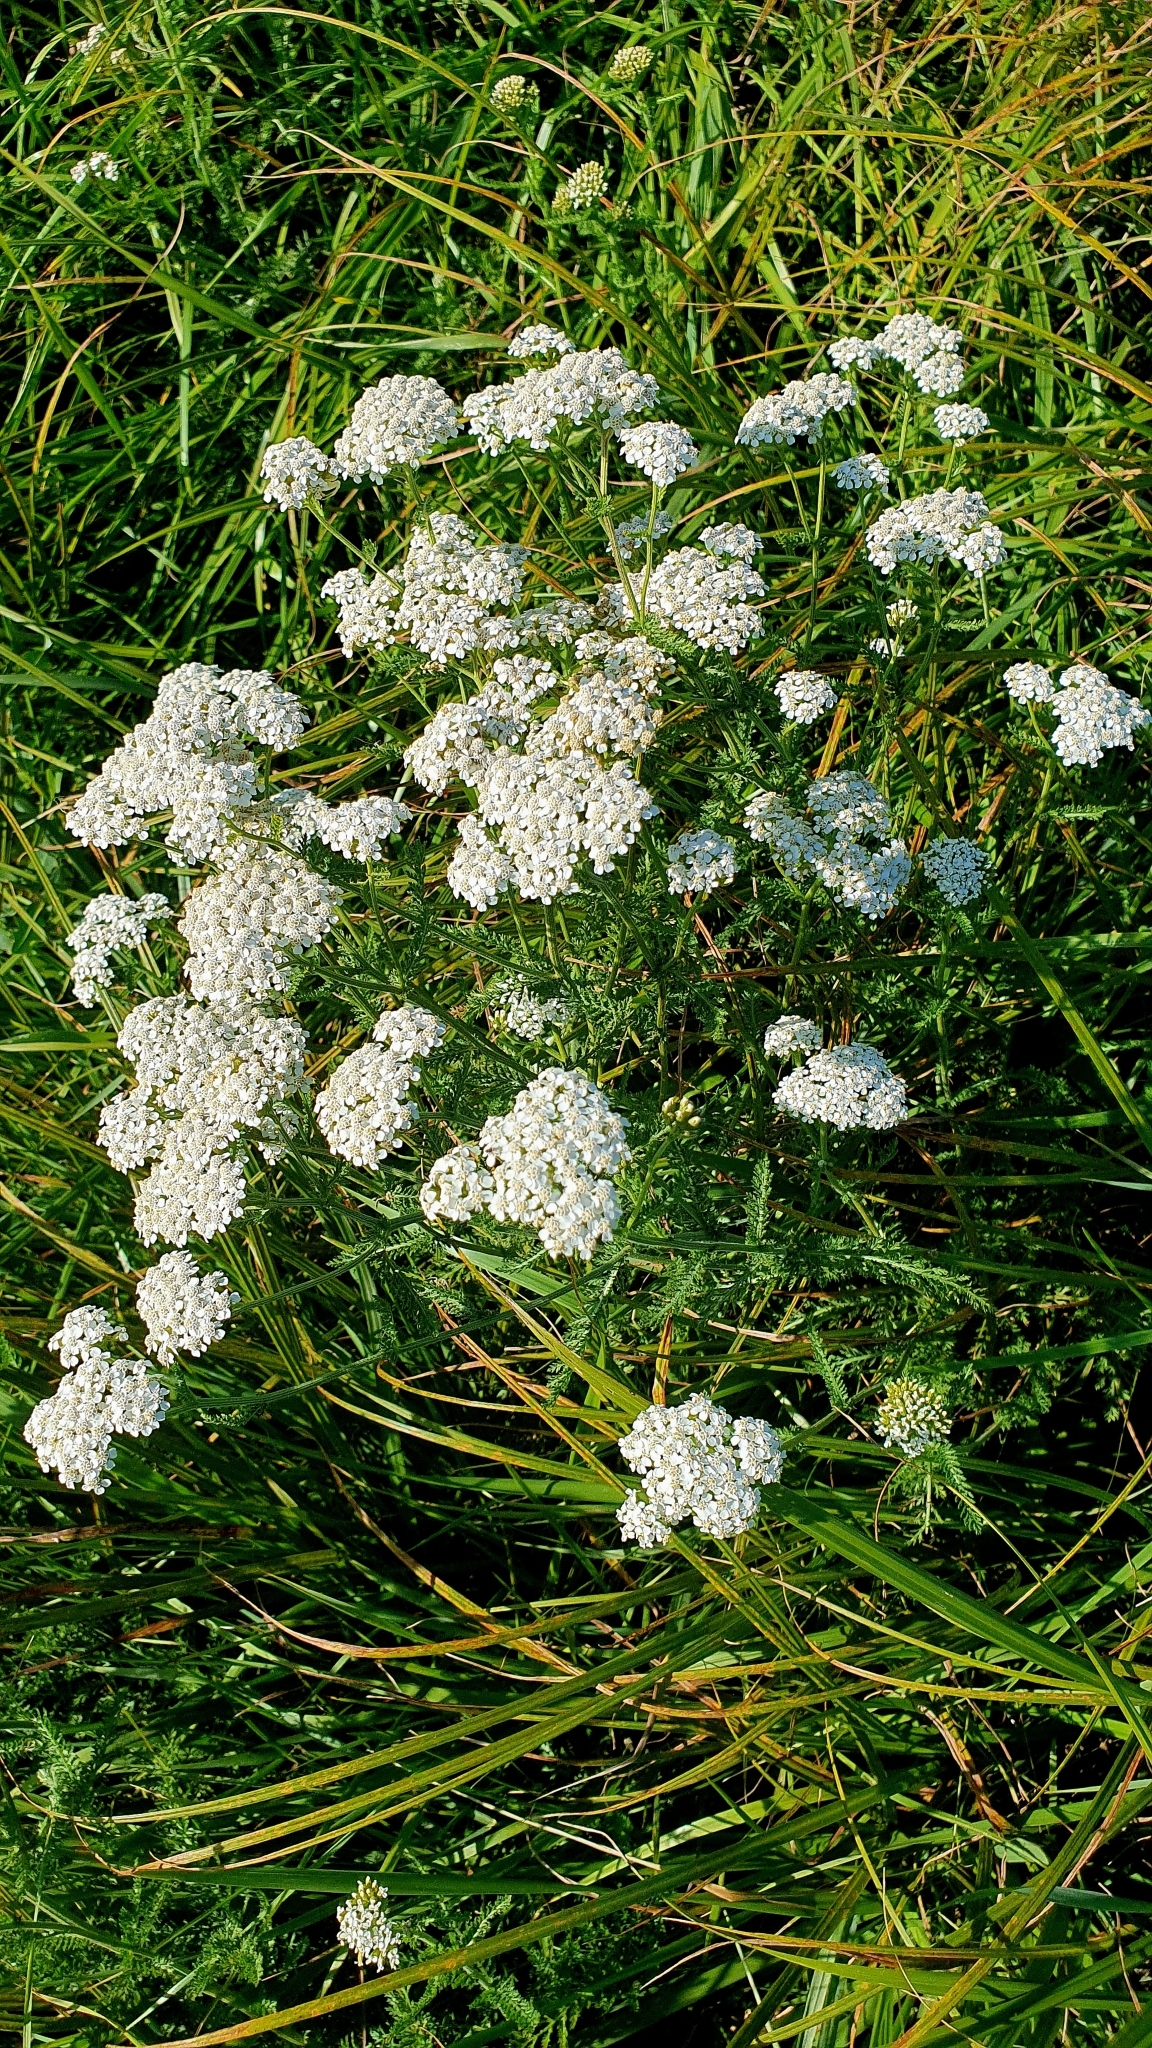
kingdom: Plantae
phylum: Tracheophyta
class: Magnoliopsida
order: Asterales
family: Asteraceae
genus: Achillea
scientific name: Achillea millefolium
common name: Yarrow
